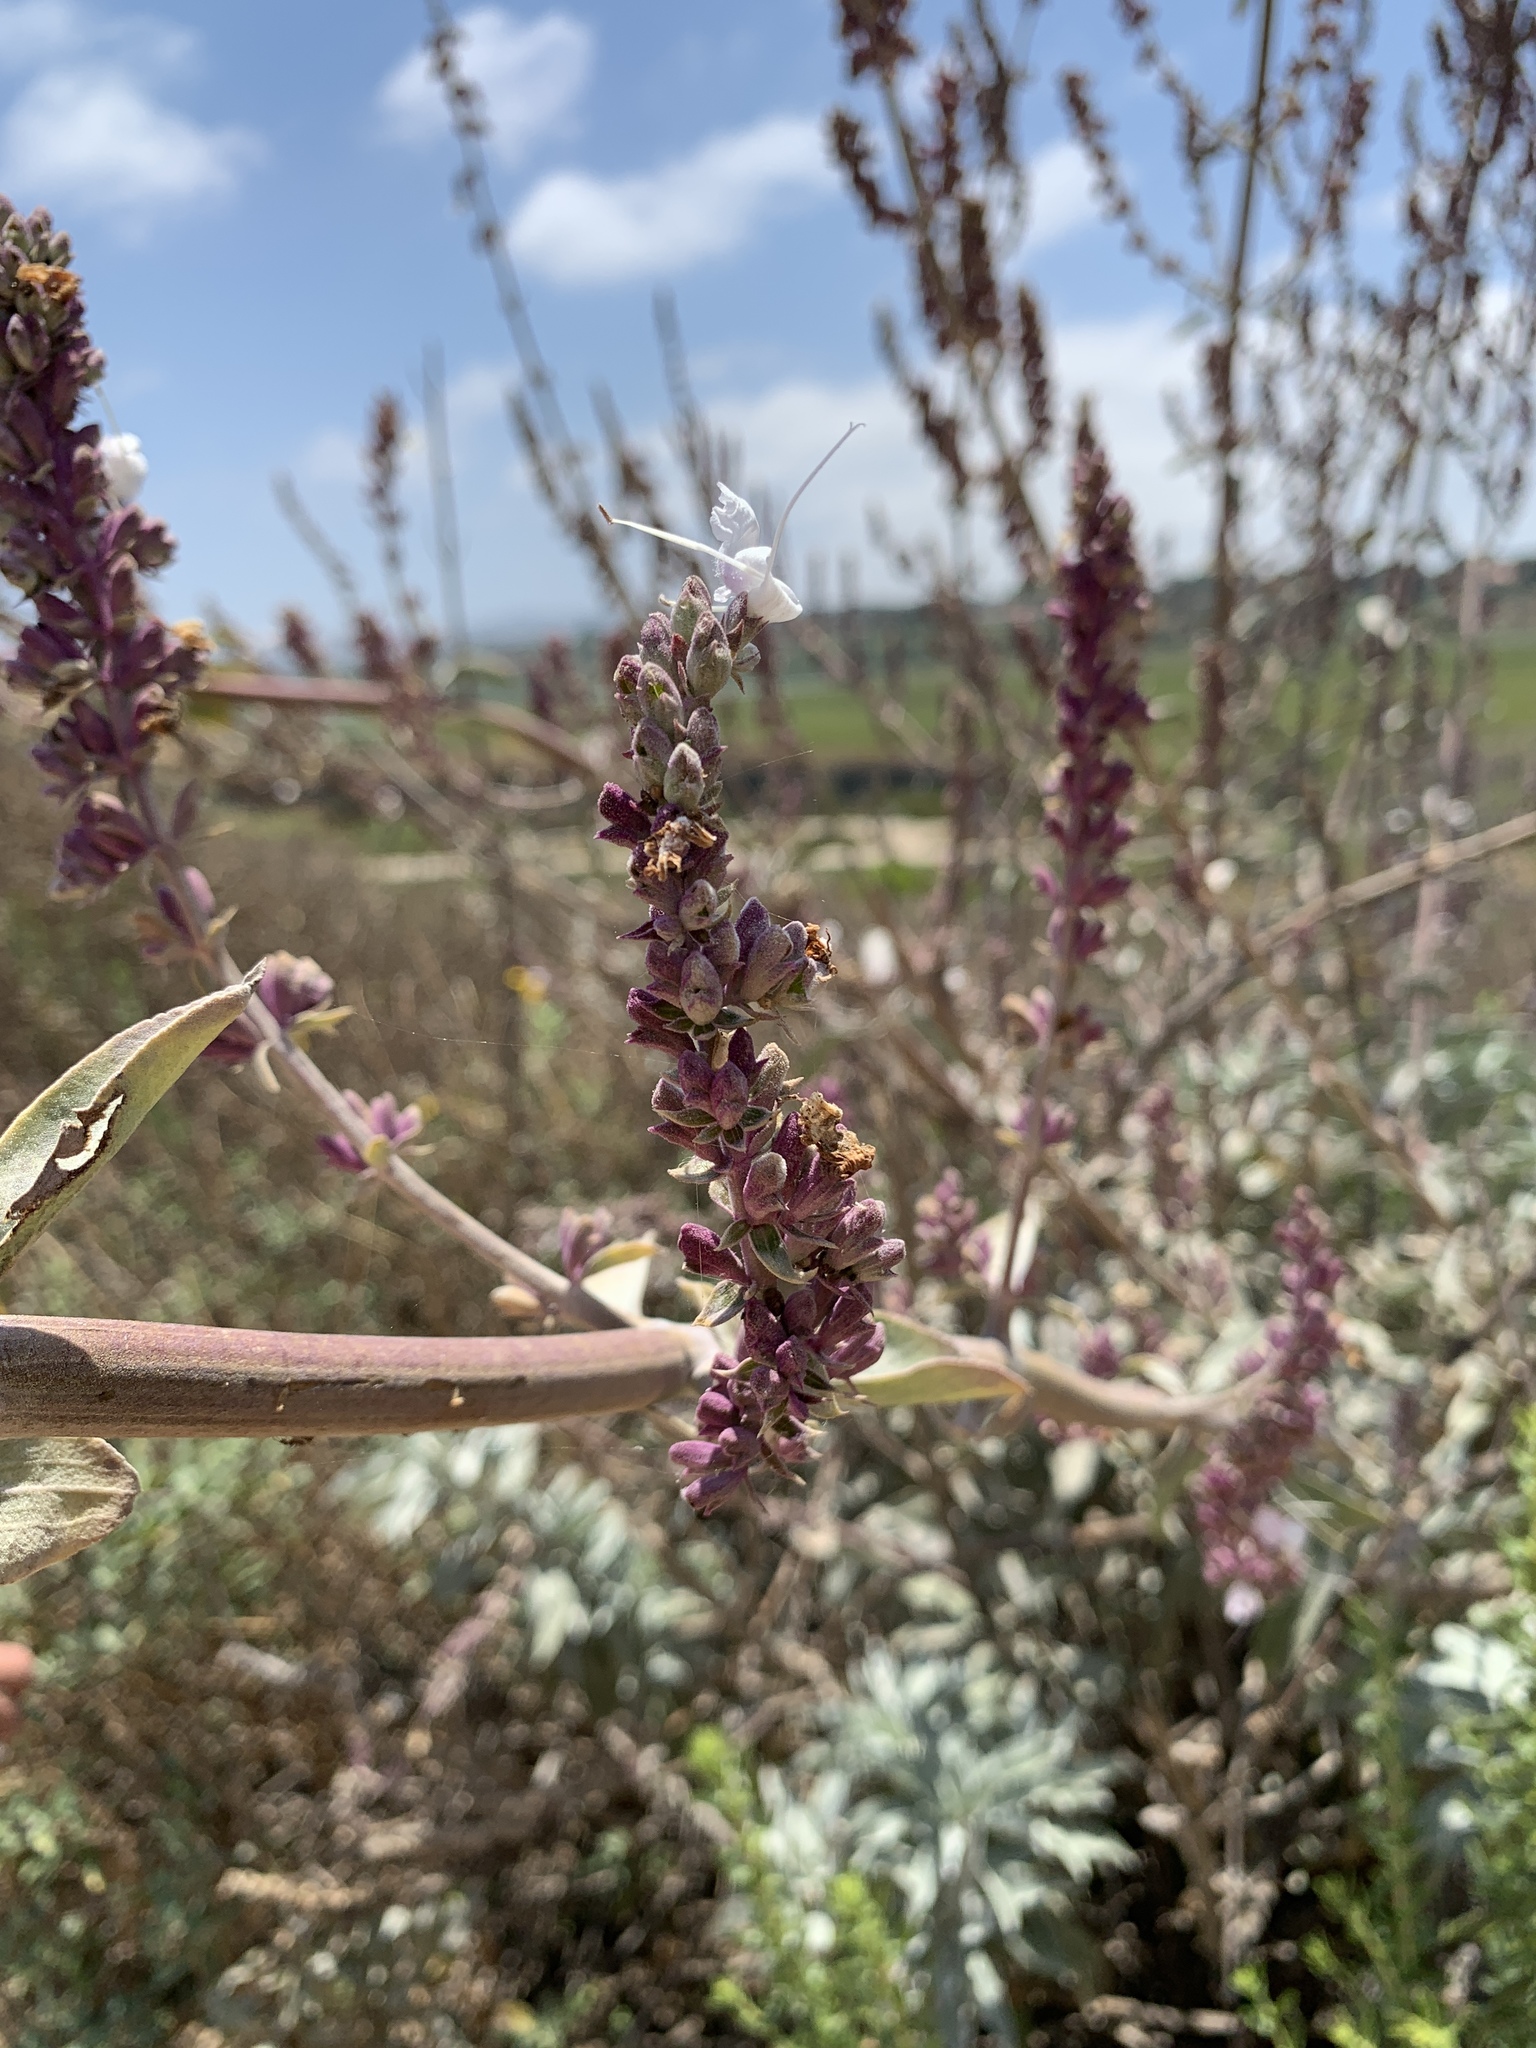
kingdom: Plantae
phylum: Tracheophyta
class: Magnoliopsida
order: Lamiales
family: Lamiaceae
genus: Salvia
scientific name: Salvia apiana
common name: White sage
